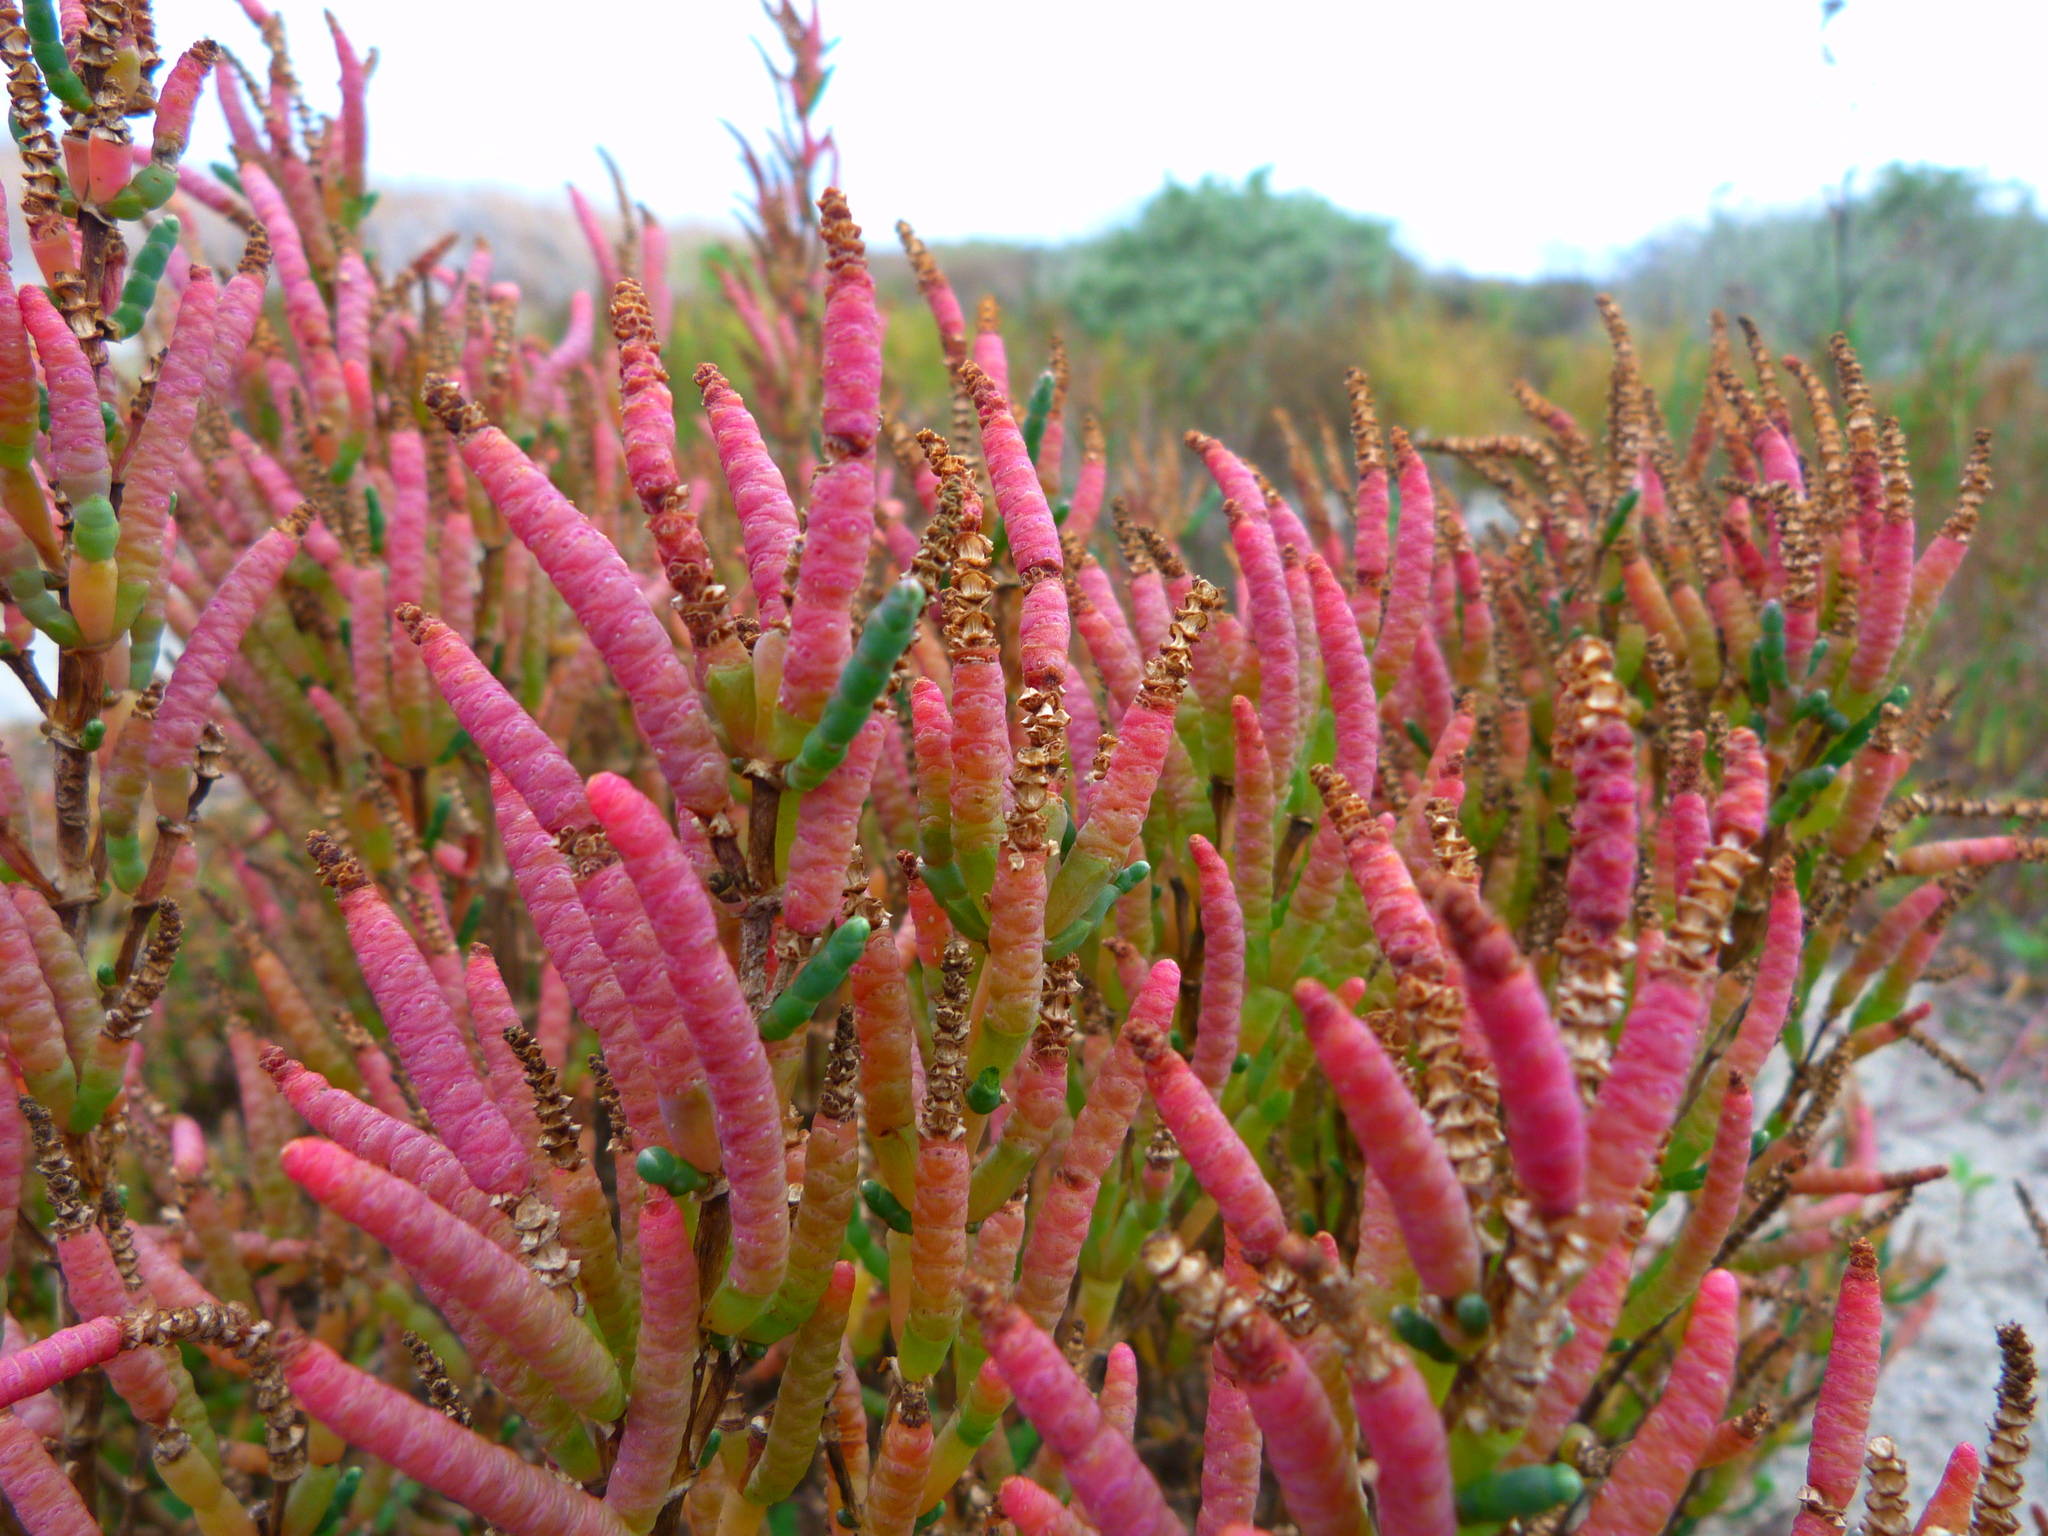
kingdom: Plantae
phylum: Tracheophyta
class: Magnoliopsida
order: Caryophyllales
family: Amaranthaceae
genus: Salicornia
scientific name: Salicornia pacifica
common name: Pacific glasswort
